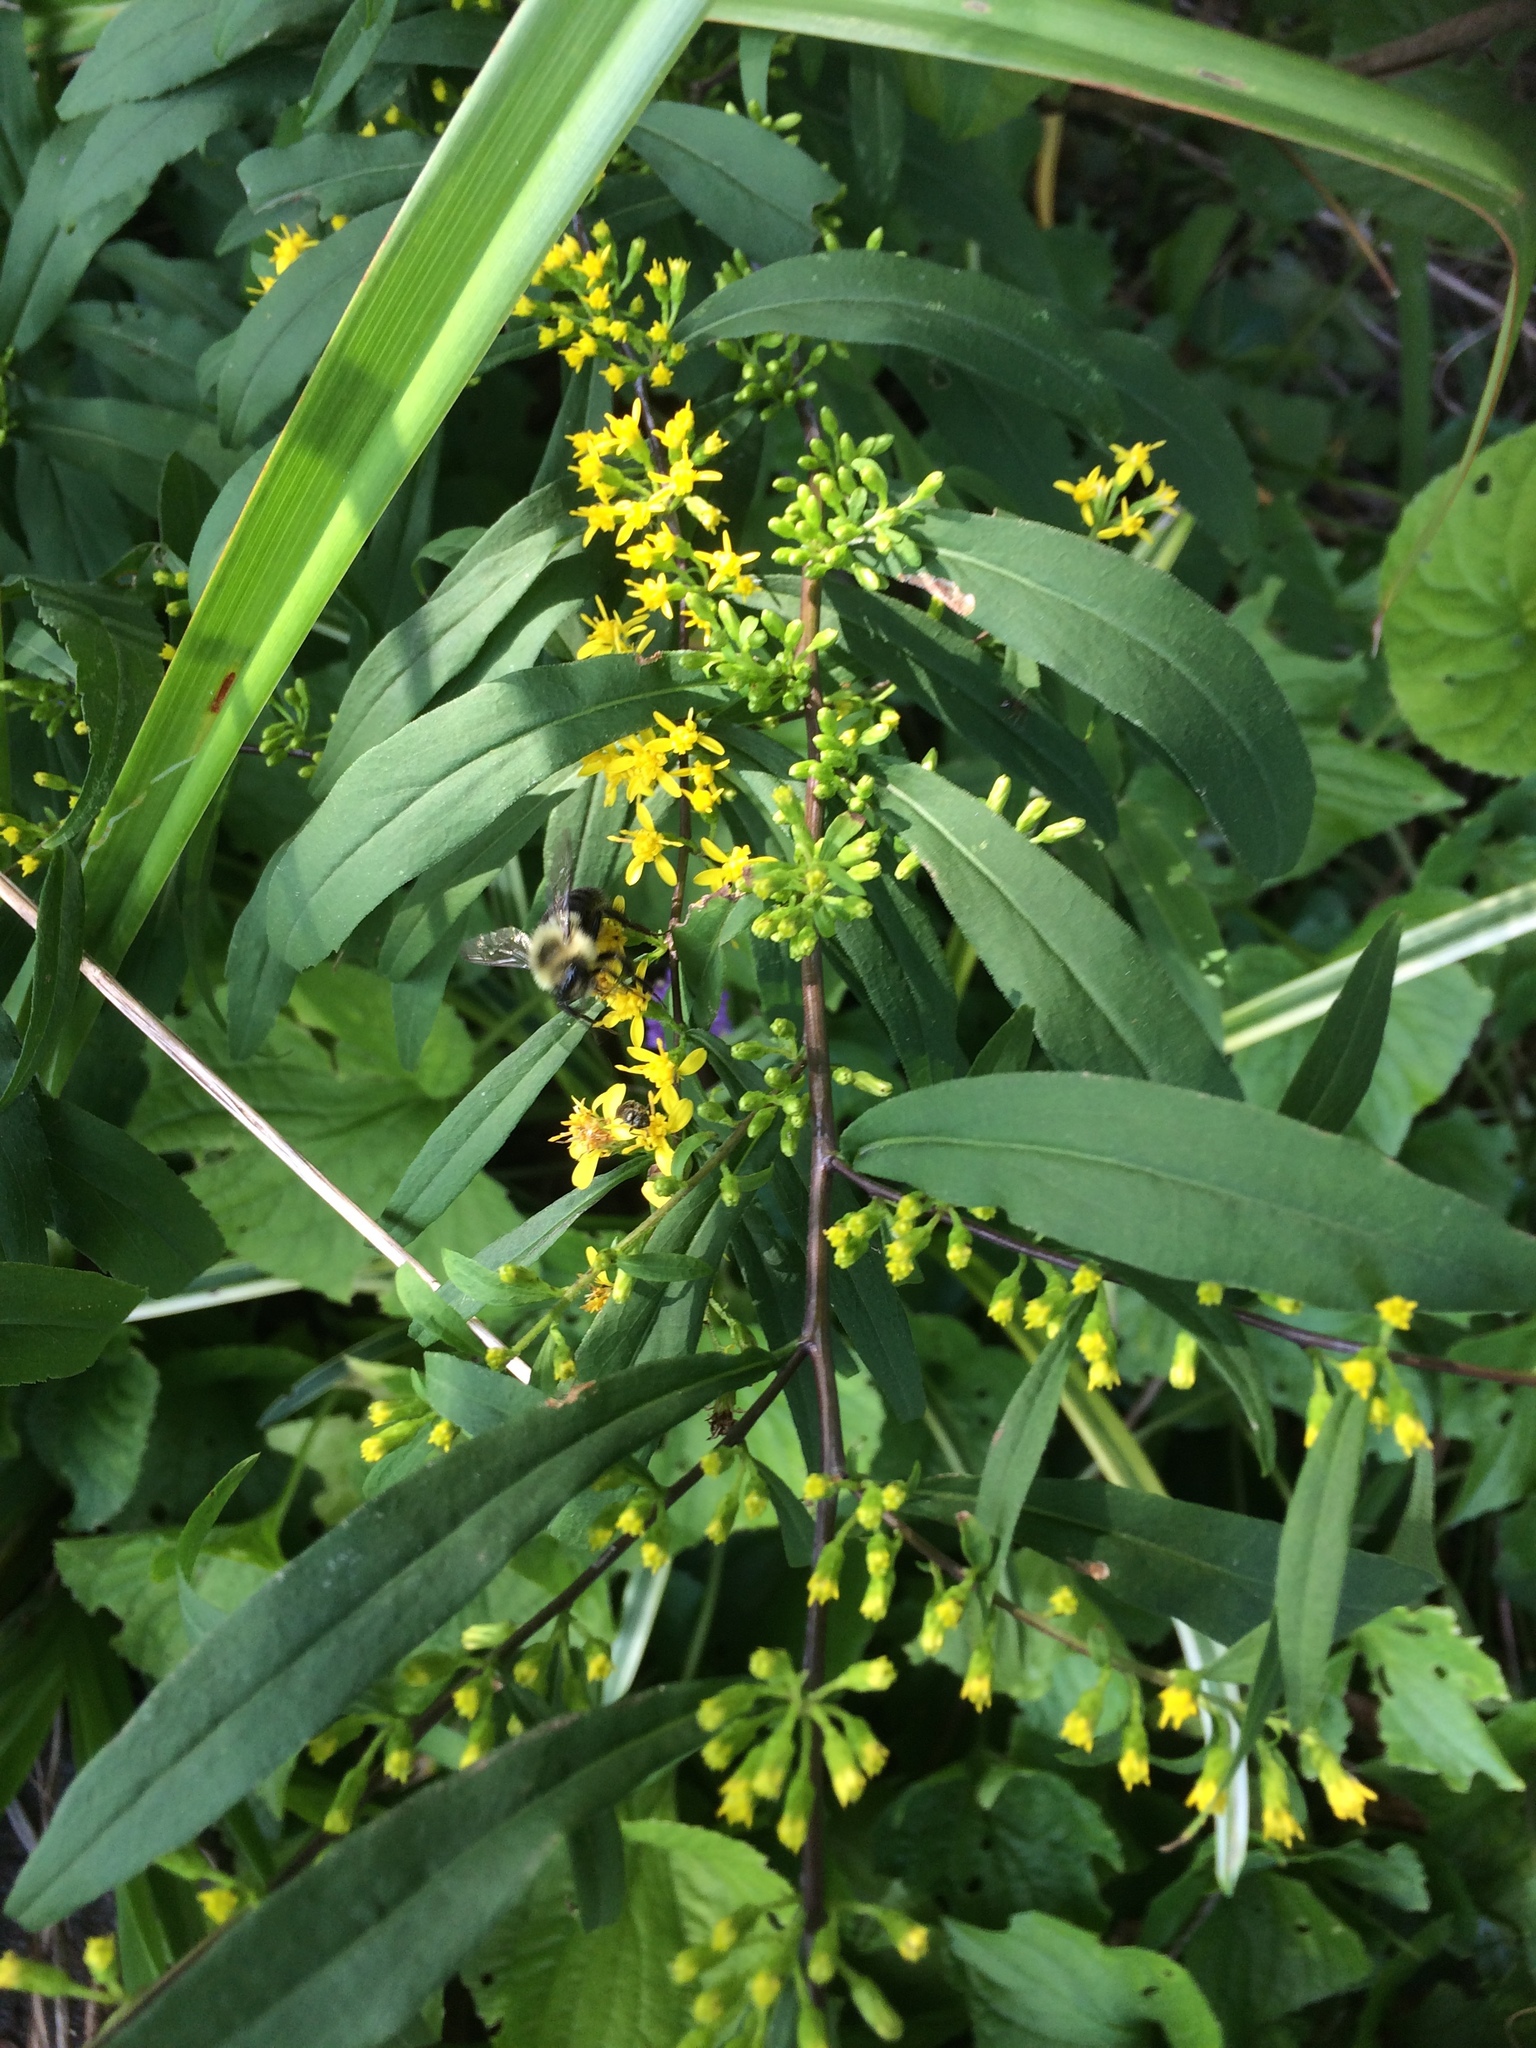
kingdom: Plantae
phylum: Tracheophyta
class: Magnoliopsida
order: Asterales
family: Asteraceae
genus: Solidago
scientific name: Solidago caesia
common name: Woodland goldenrod
